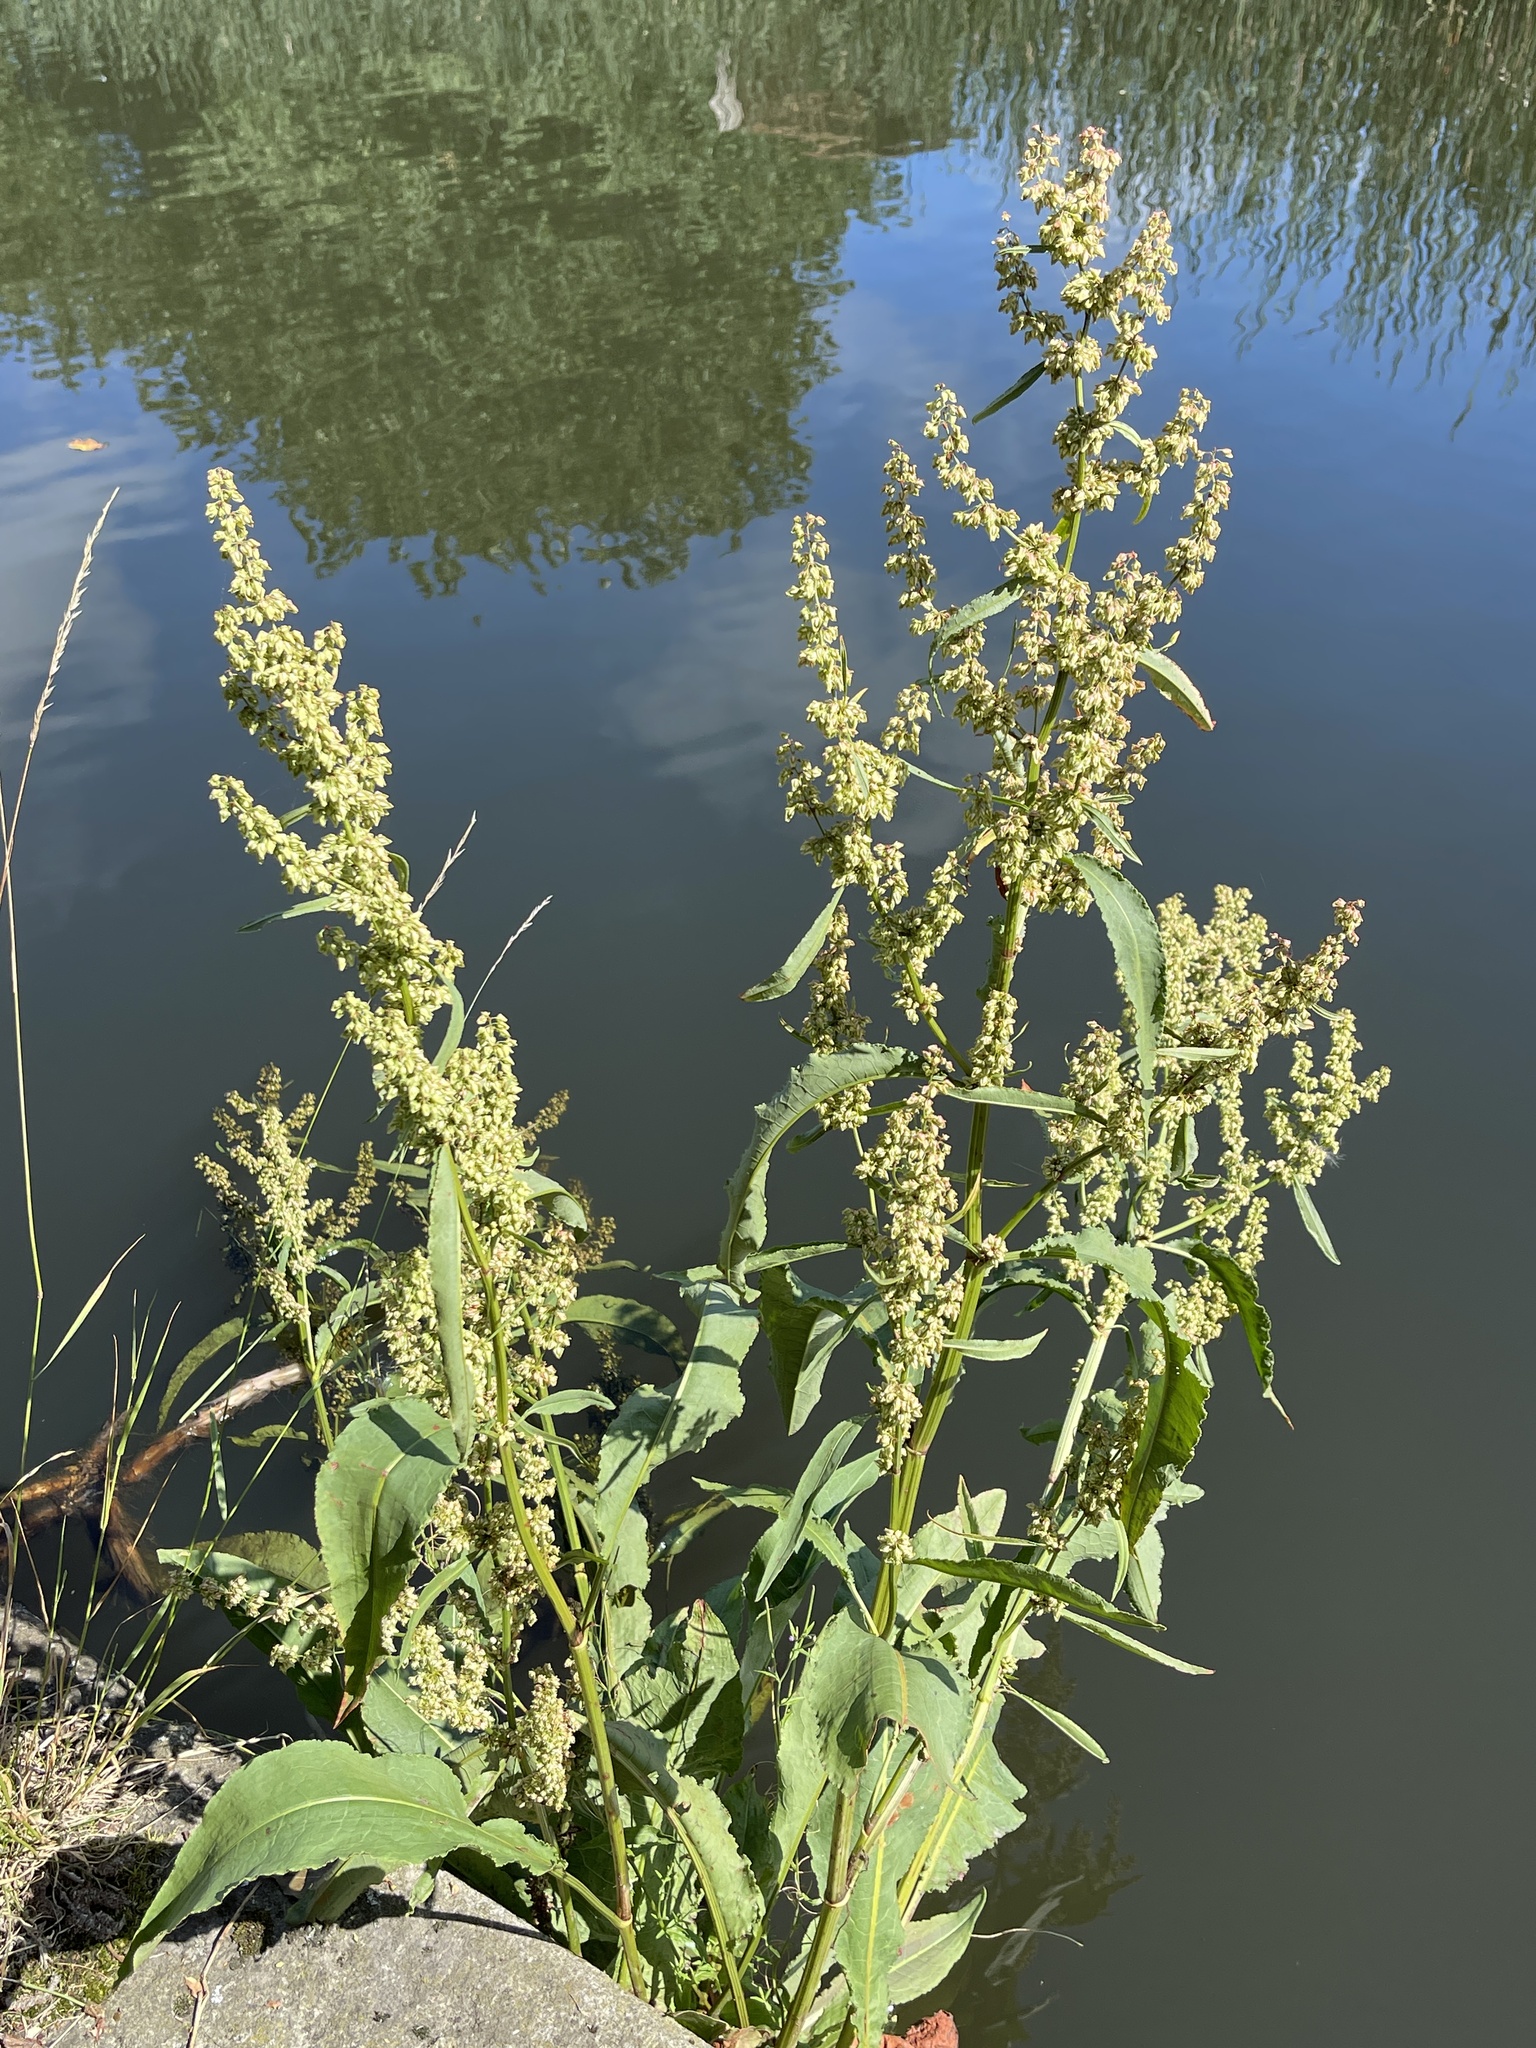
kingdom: Plantae
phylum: Tracheophyta
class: Magnoliopsida
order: Caryophyllales
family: Polygonaceae
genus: Rumex
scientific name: Rumex hydrolapathum
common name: Water dock
